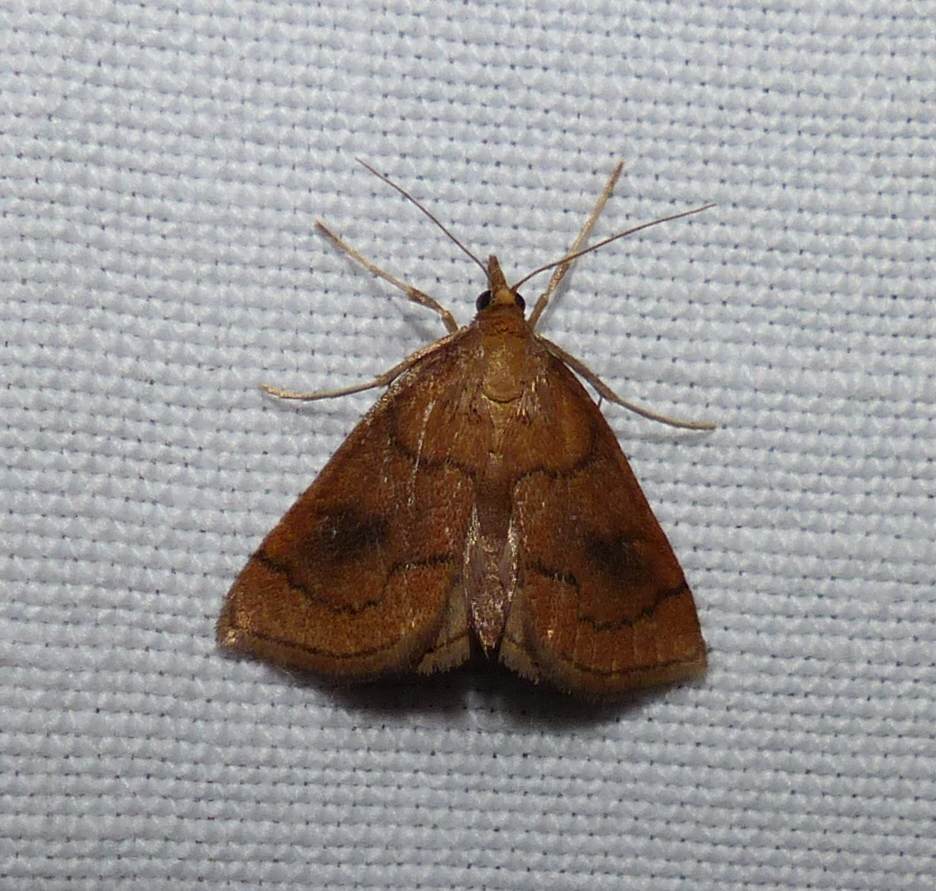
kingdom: Animalia
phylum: Arthropoda
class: Insecta
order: Lepidoptera
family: Crambidae
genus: Fumibotys
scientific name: Fumibotys fumalis
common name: Mint root borer moth
